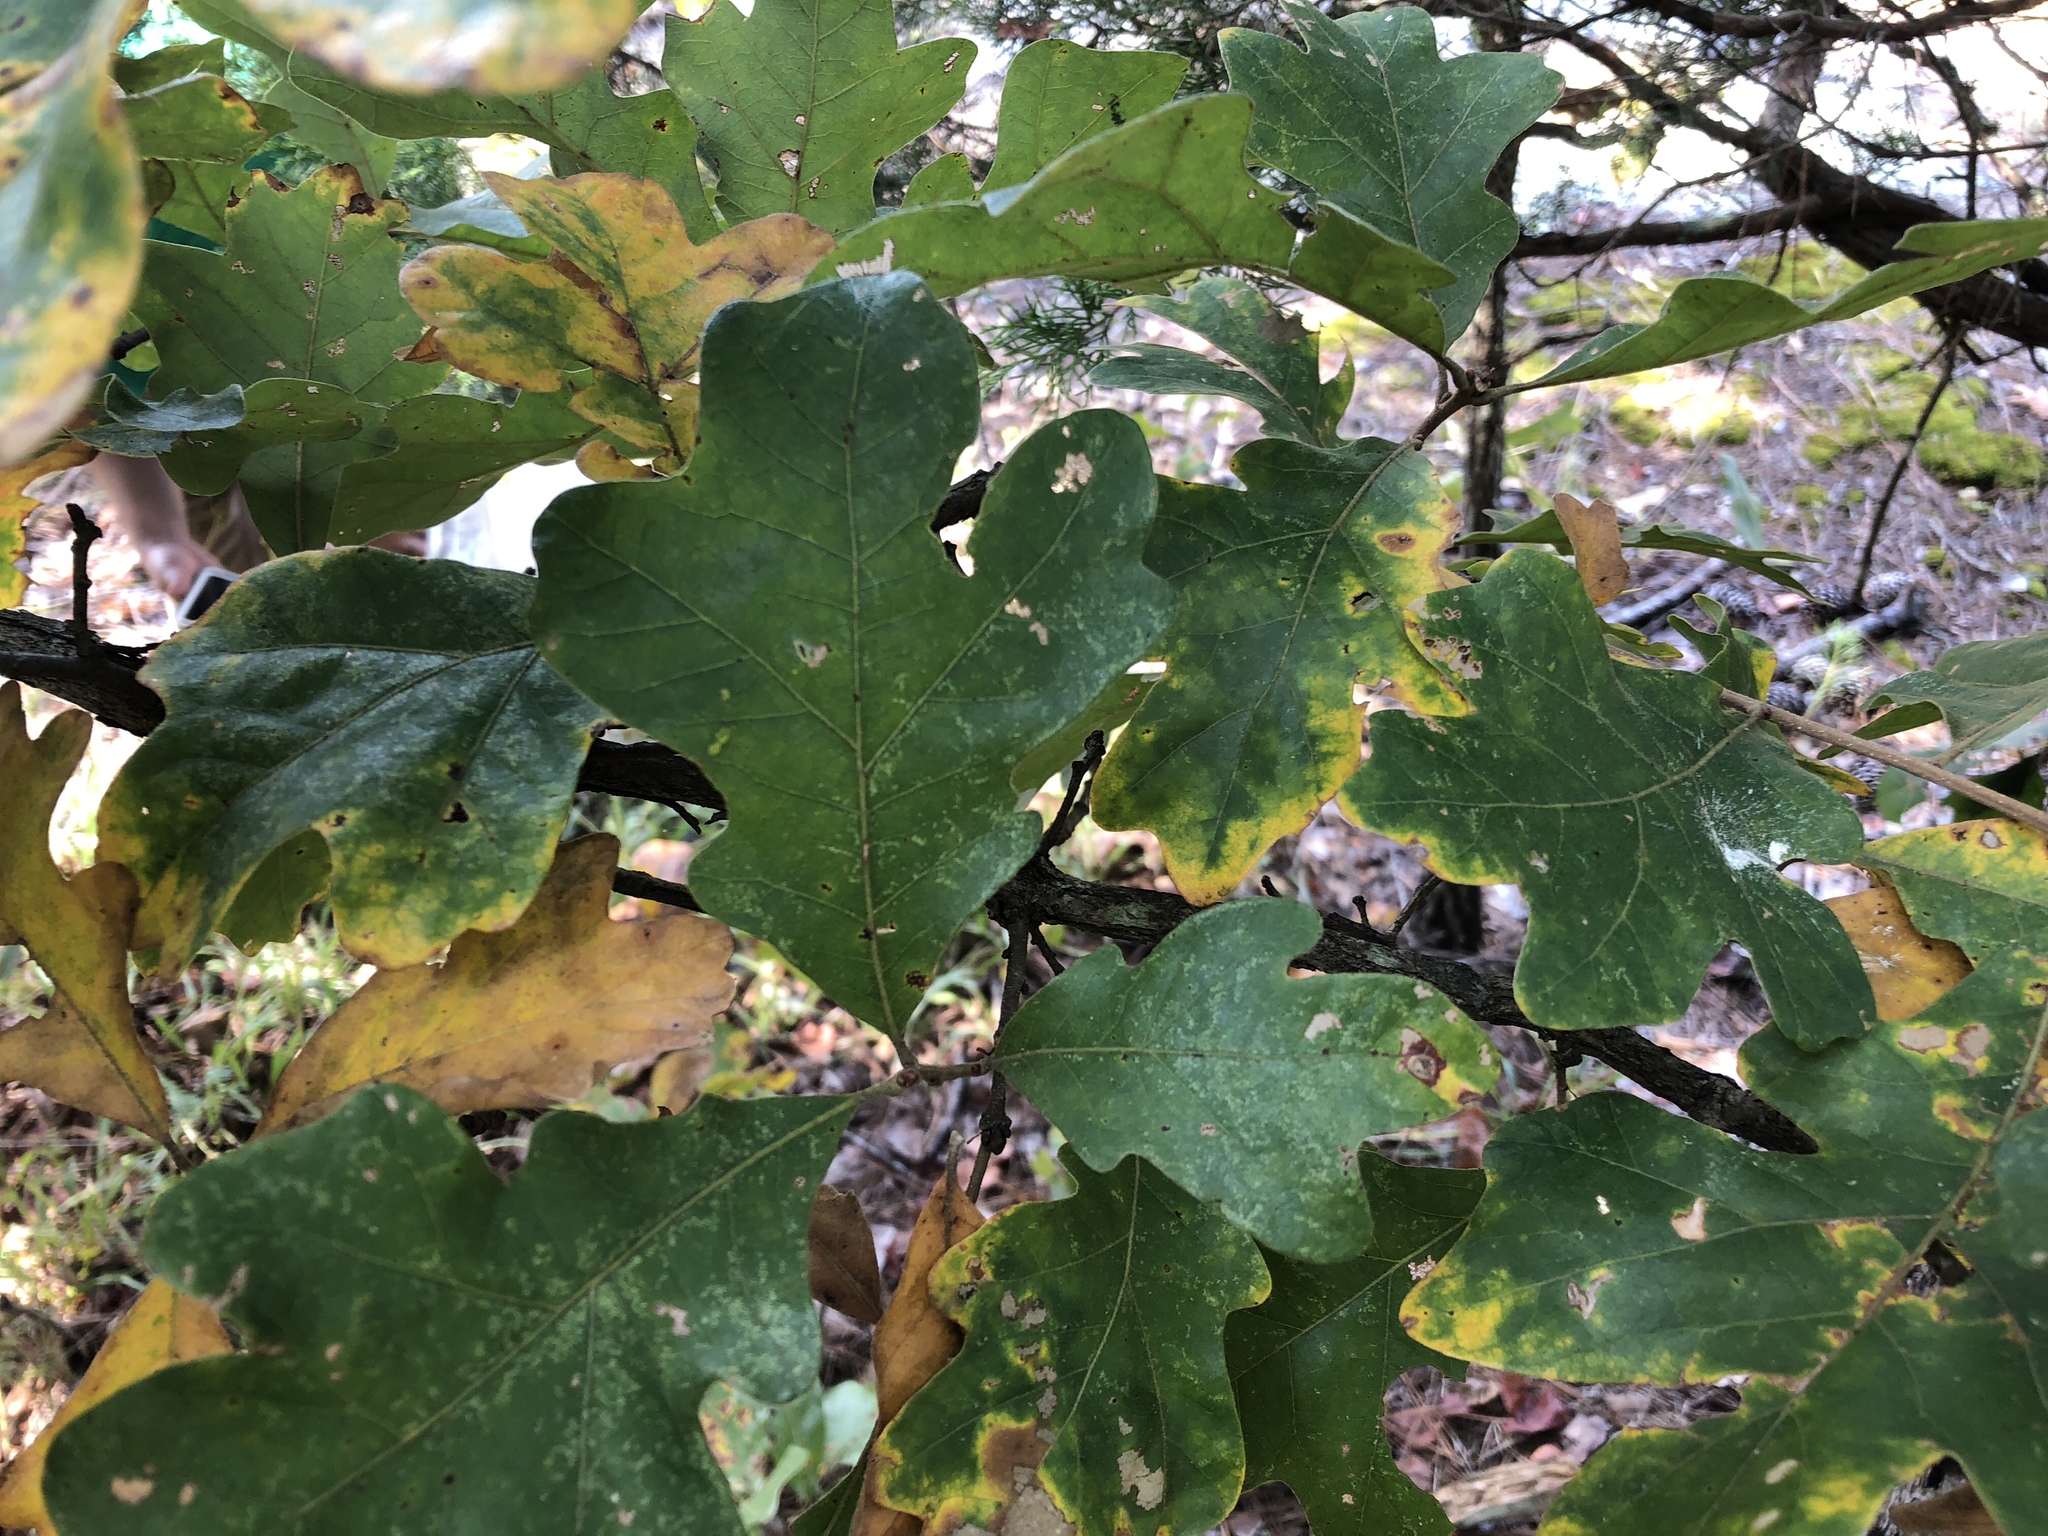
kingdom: Plantae
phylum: Tracheophyta
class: Magnoliopsida
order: Fagales
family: Fagaceae
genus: Quercus
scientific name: Quercus stellata
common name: Post oak
